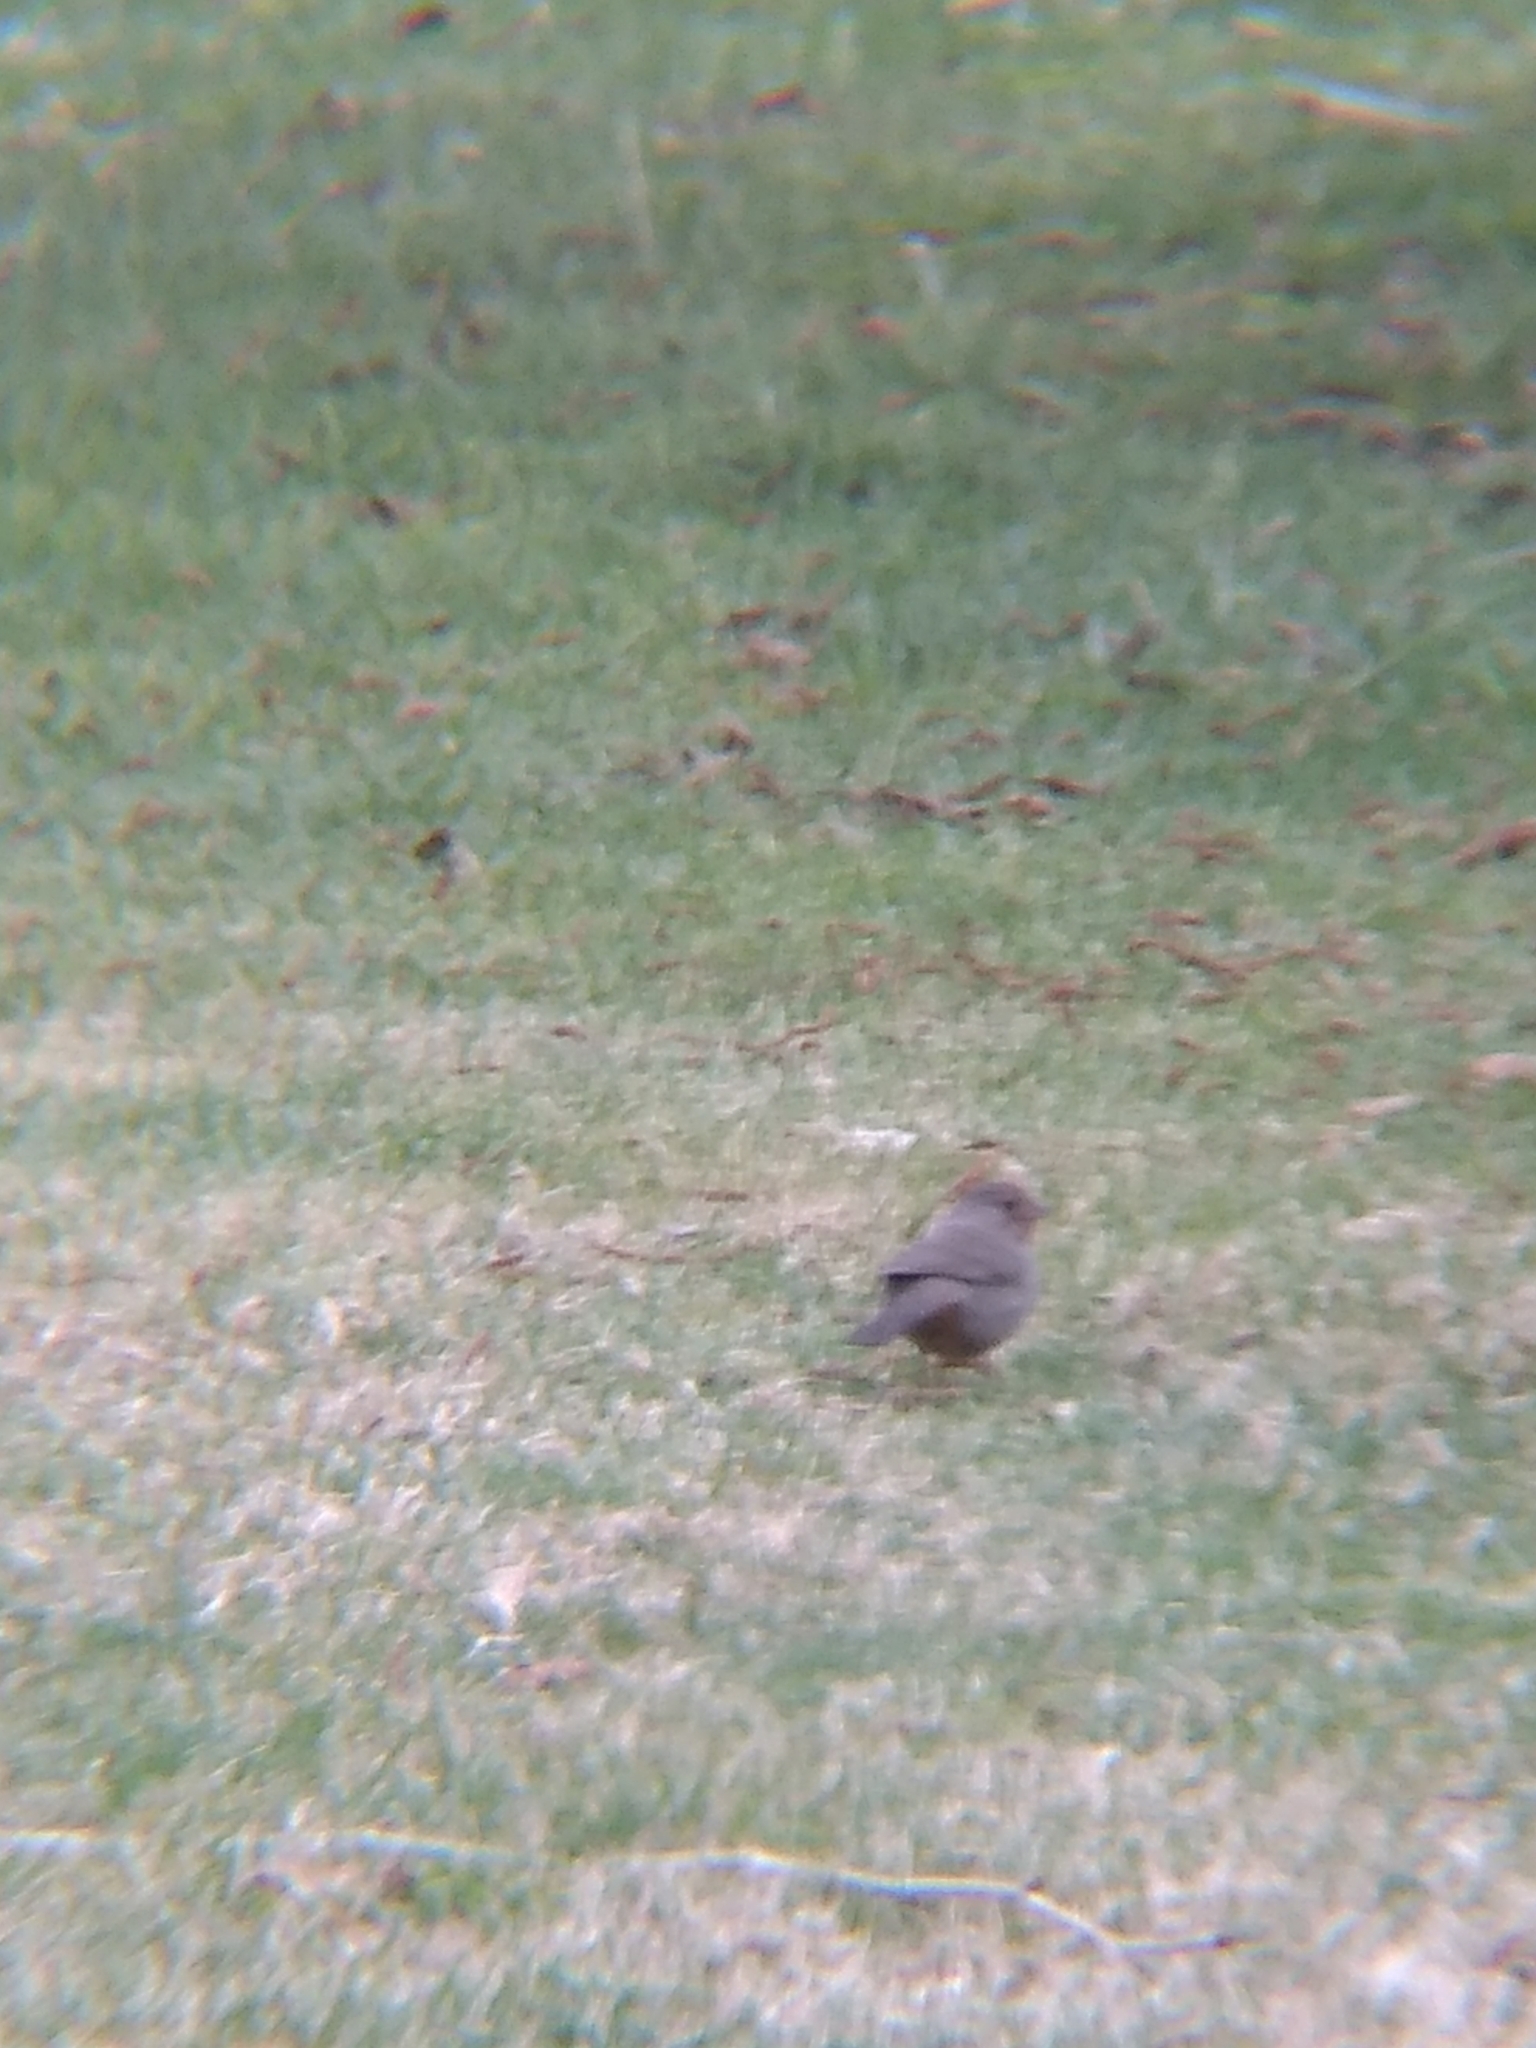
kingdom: Animalia
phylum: Chordata
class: Aves
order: Passeriformes
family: Passerellidae
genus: Melozone
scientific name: Melozone crissalis
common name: California towhee
